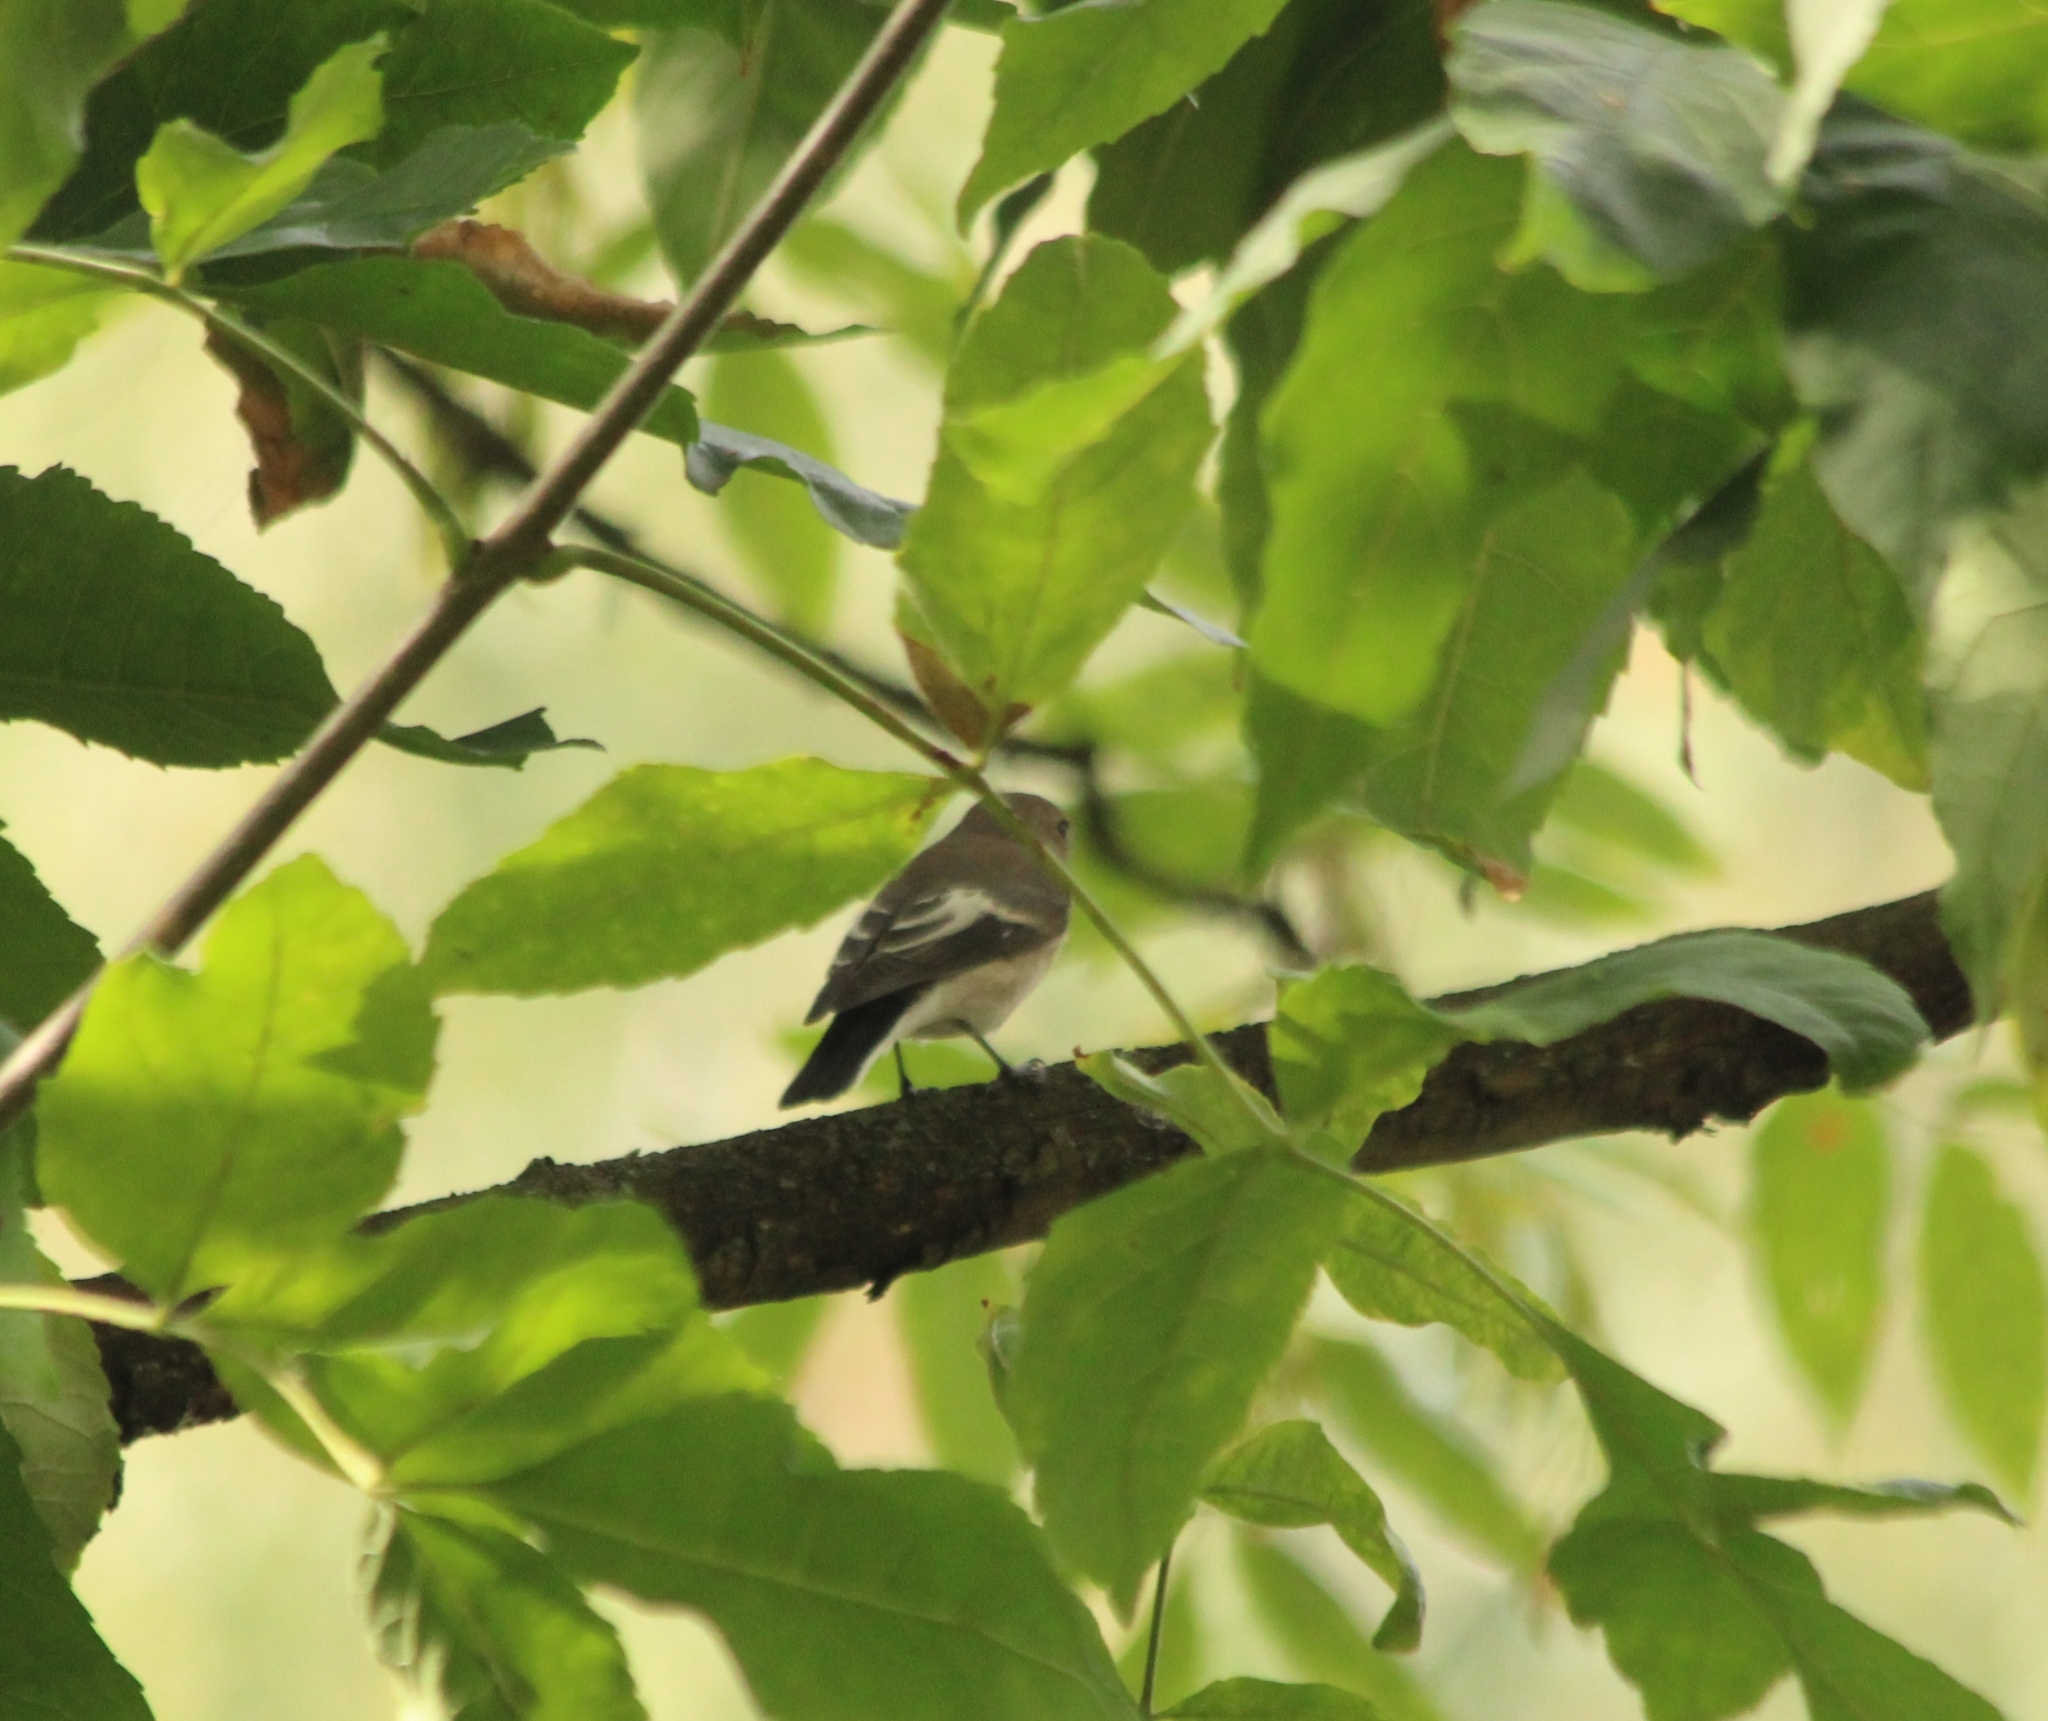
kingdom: Animalia
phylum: Chordata
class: Aves
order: Passeriformes
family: Muscicapidae
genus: Ficedula
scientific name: Ficedula hypoleuca
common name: European pied flycatcher
